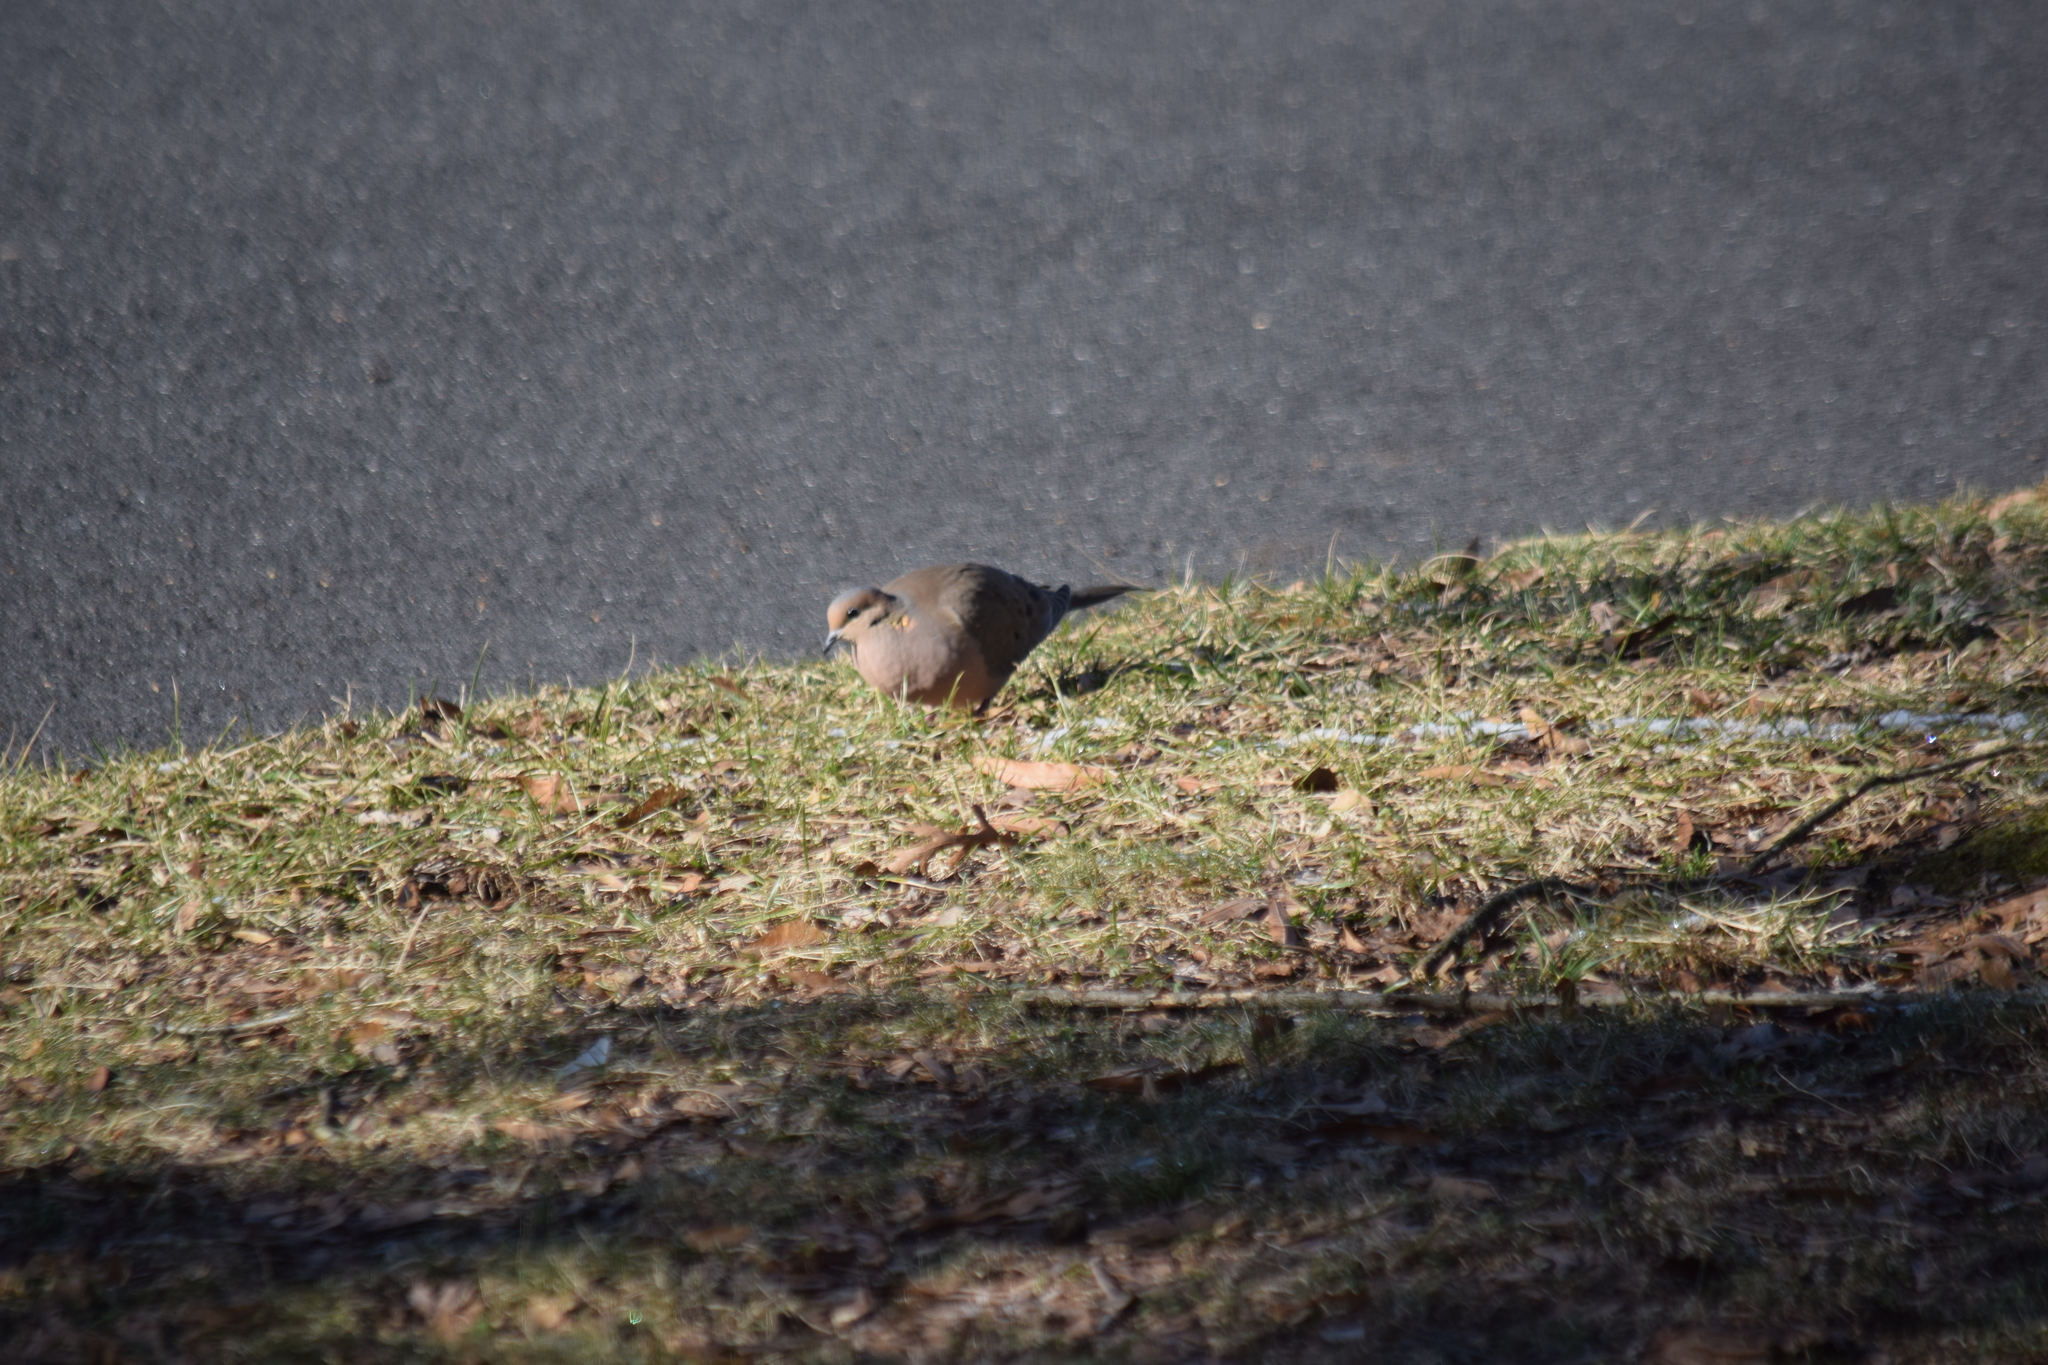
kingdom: Animalia
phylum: Chordata
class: Aves
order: Columbiformes
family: Columbidae
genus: Zenaida
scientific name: Zenaida macroura
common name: Mourning dove
